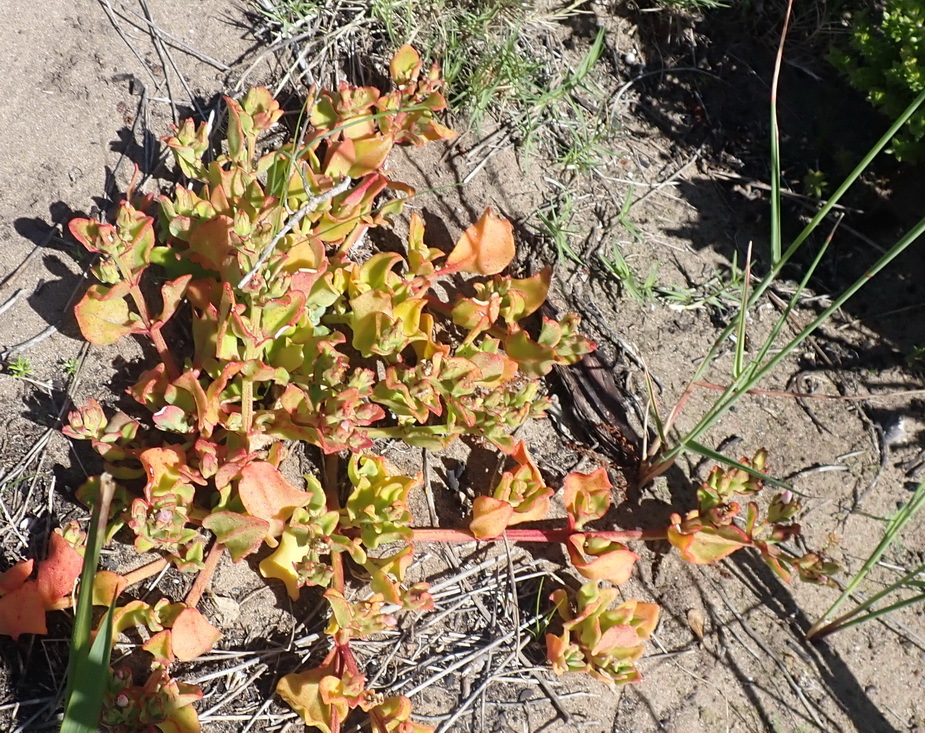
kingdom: Plantae
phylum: Tracheophyta
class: Magnoliopsida
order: Caryophyllales
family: Aizoaceae
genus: Mesembryanthemum
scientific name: Mesembryanthemum aitonis
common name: Angled iceplant
